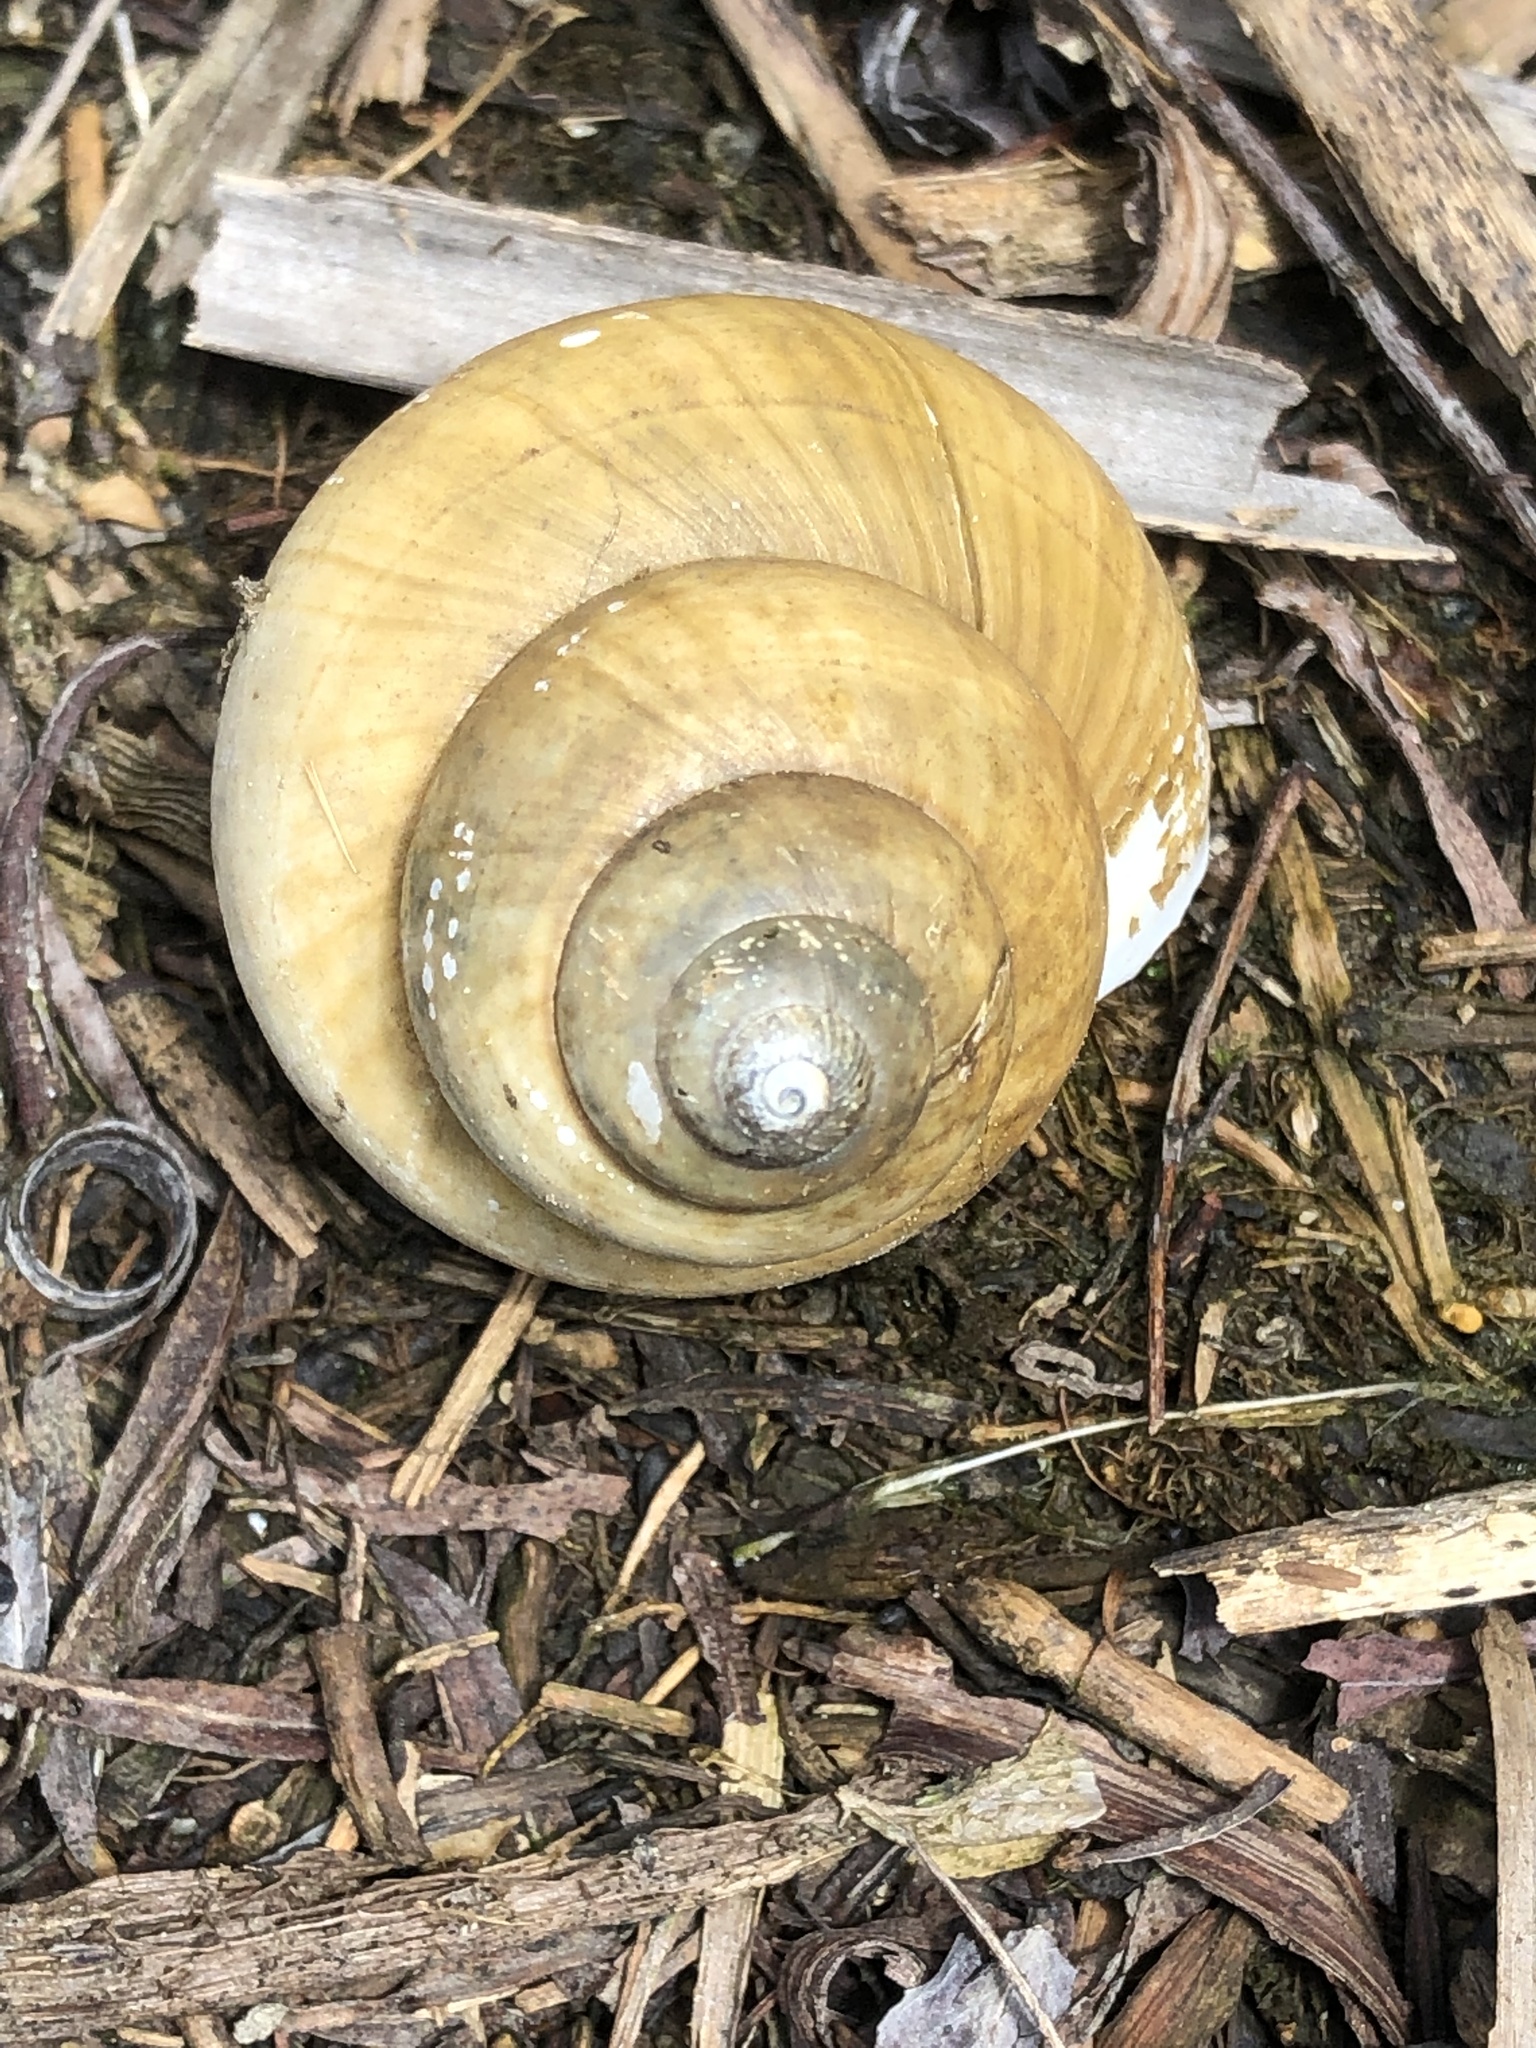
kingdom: Animalia
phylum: Mollusca
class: Gastropoda
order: Architaenioglossa
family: Viviparidae
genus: Cipangopaludina
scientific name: Cipangopaludina chinensis
